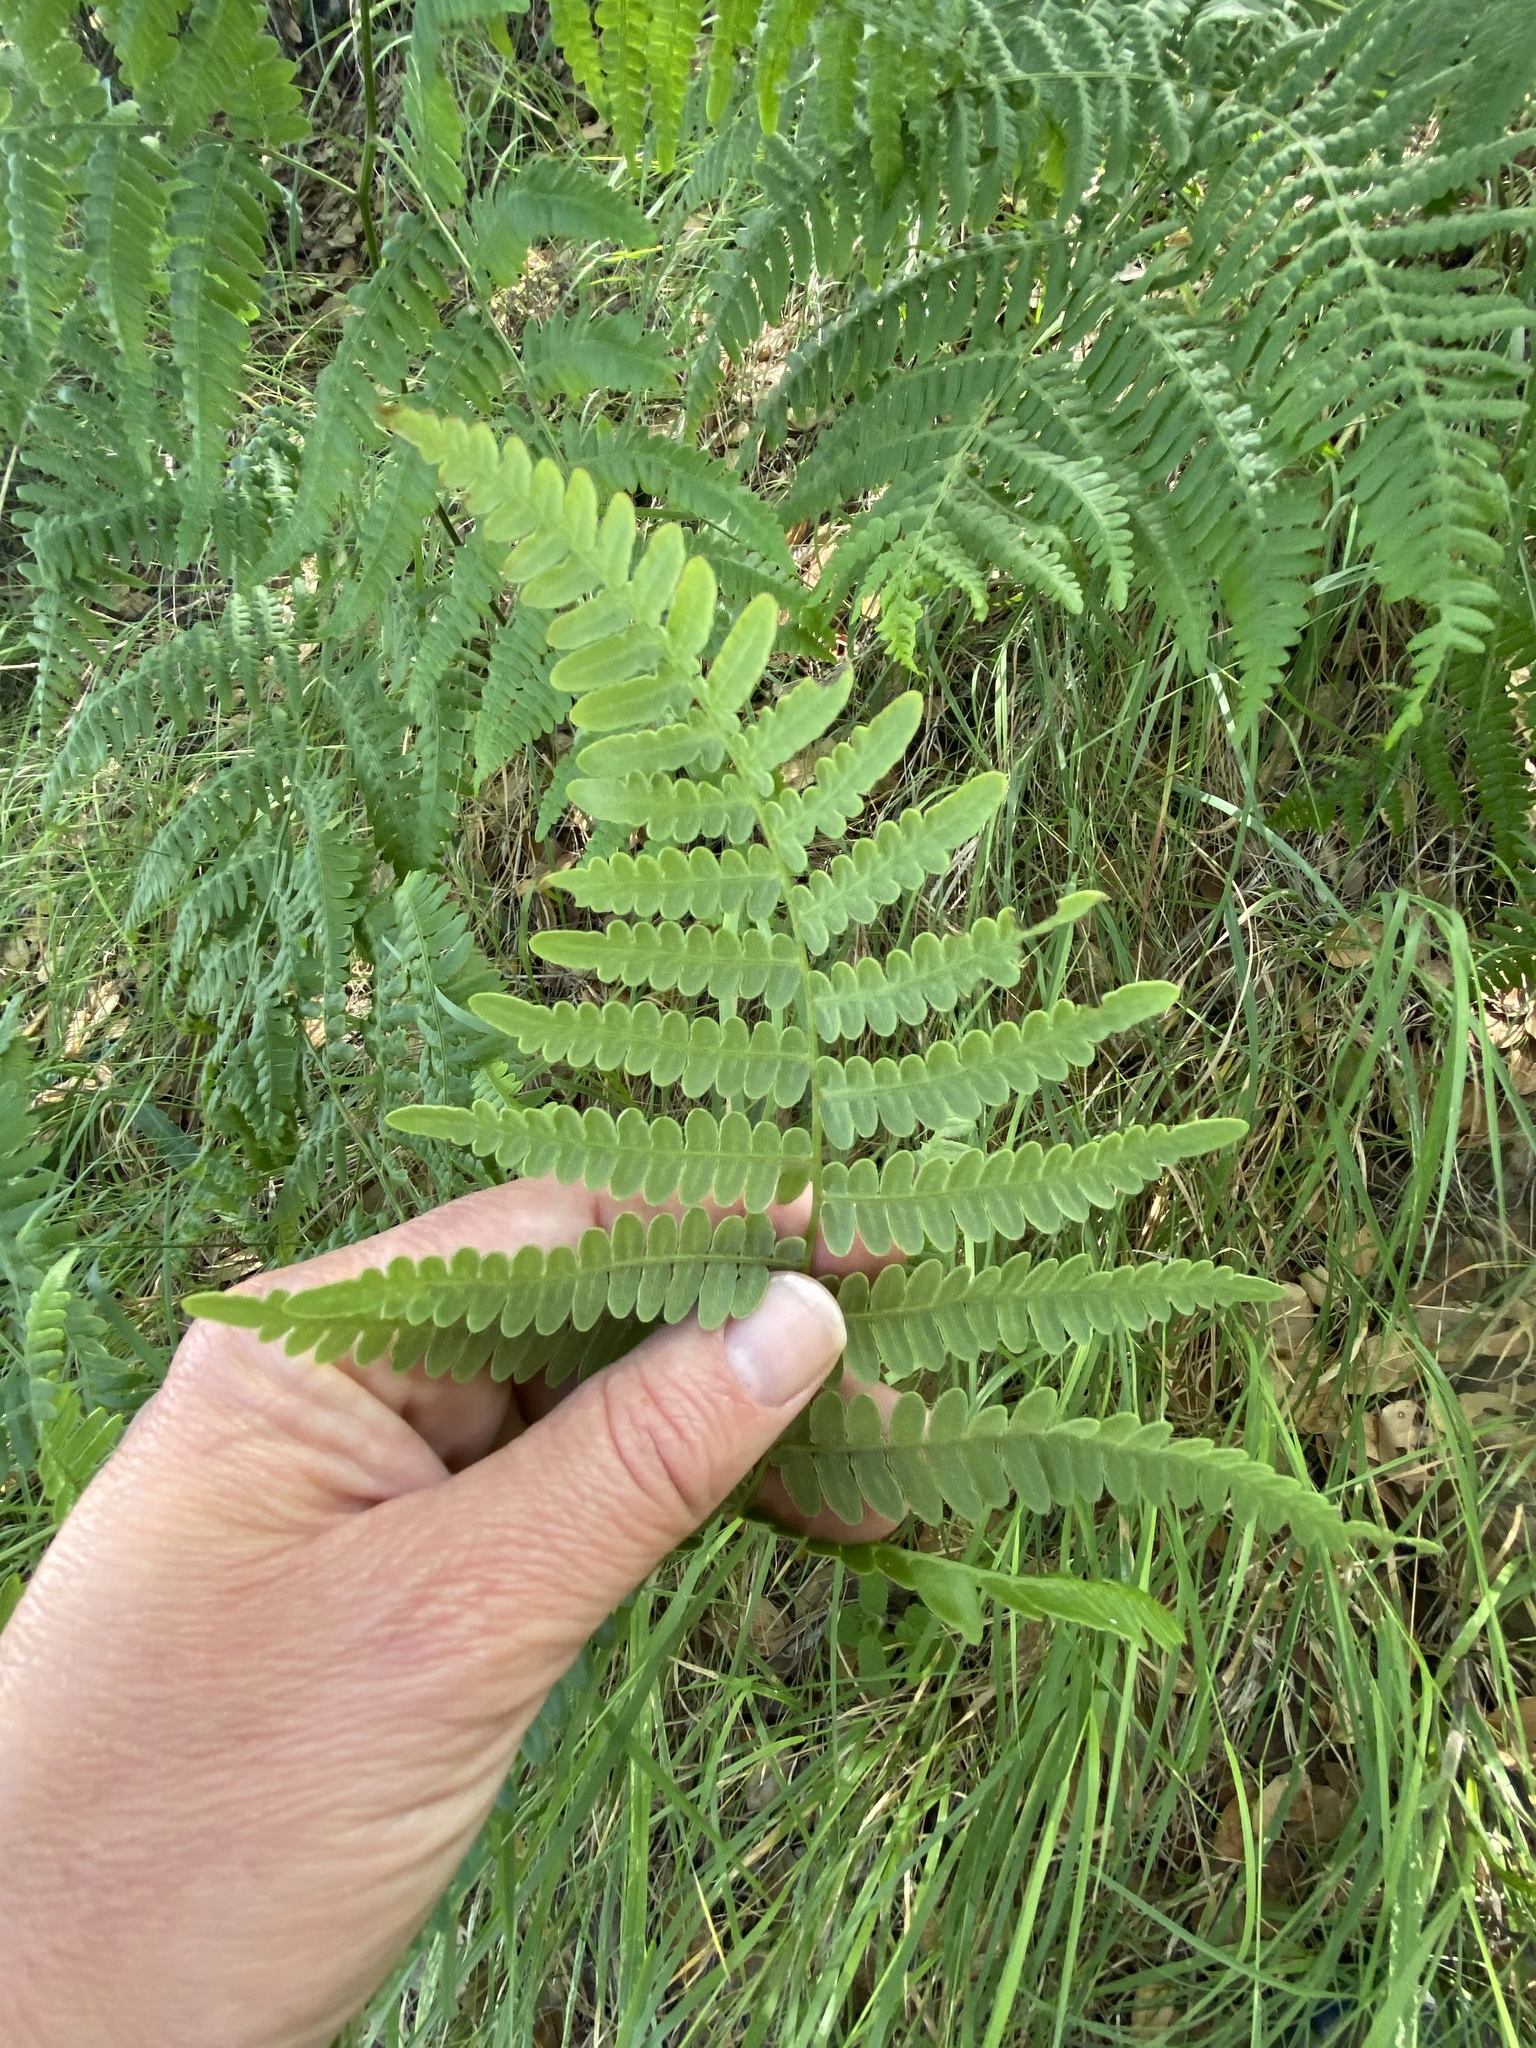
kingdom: Plantae
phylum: Tracheophyta
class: Polypodiopsida
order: Polypodiales
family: Dennstaedtiaceae
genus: Pteridium
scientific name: Pteridium aquilinum
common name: Bracken
